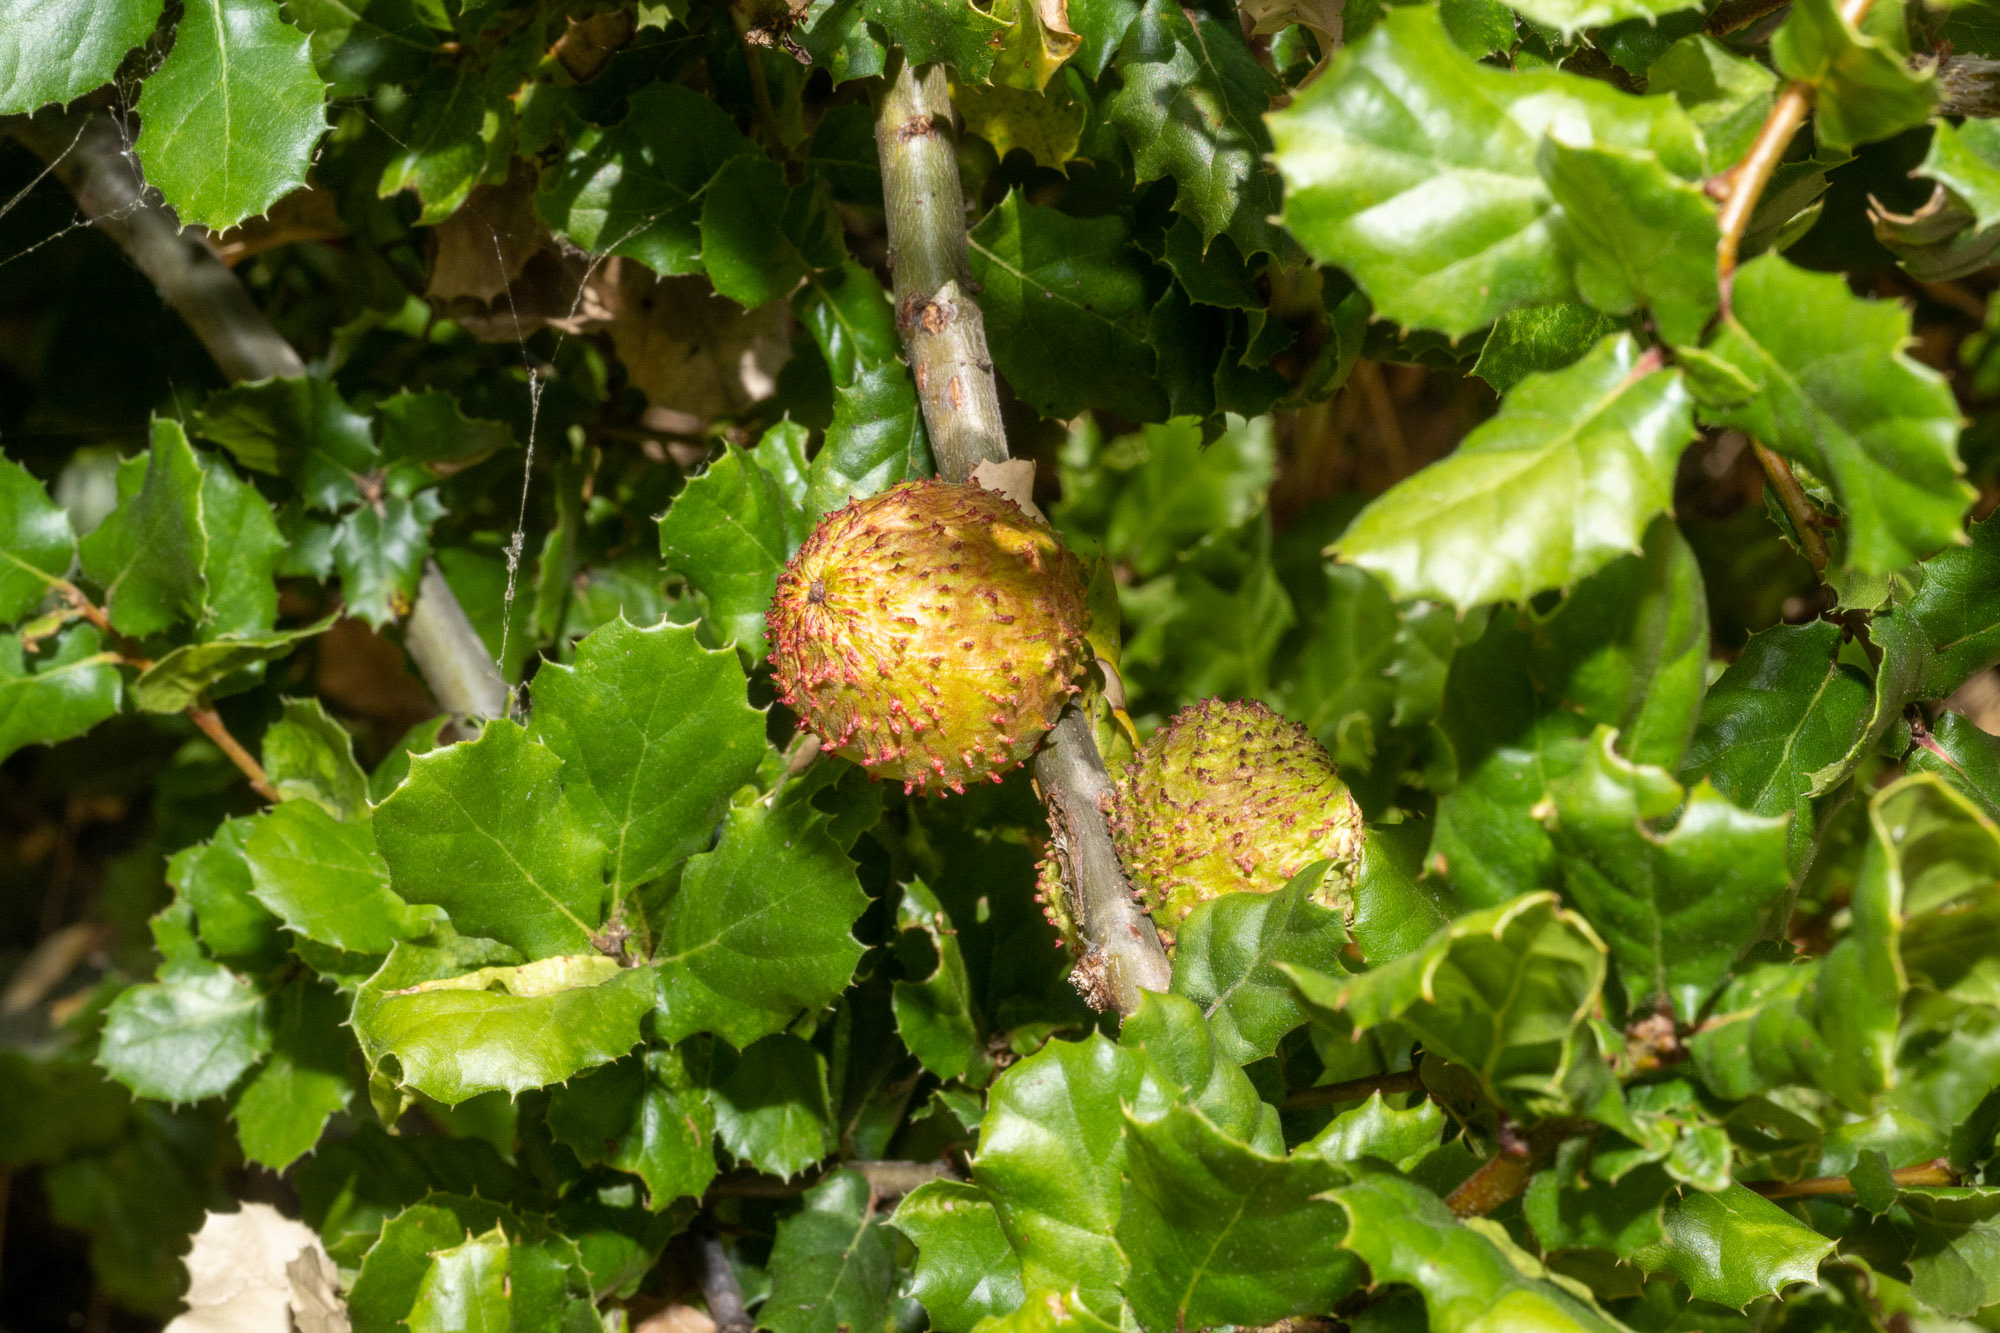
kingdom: Animalia
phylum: Arthropoda
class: Insecta
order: Hymenoptera
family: Cynipidae
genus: Amphibolips
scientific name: Amphibolips quercuspomiformis
